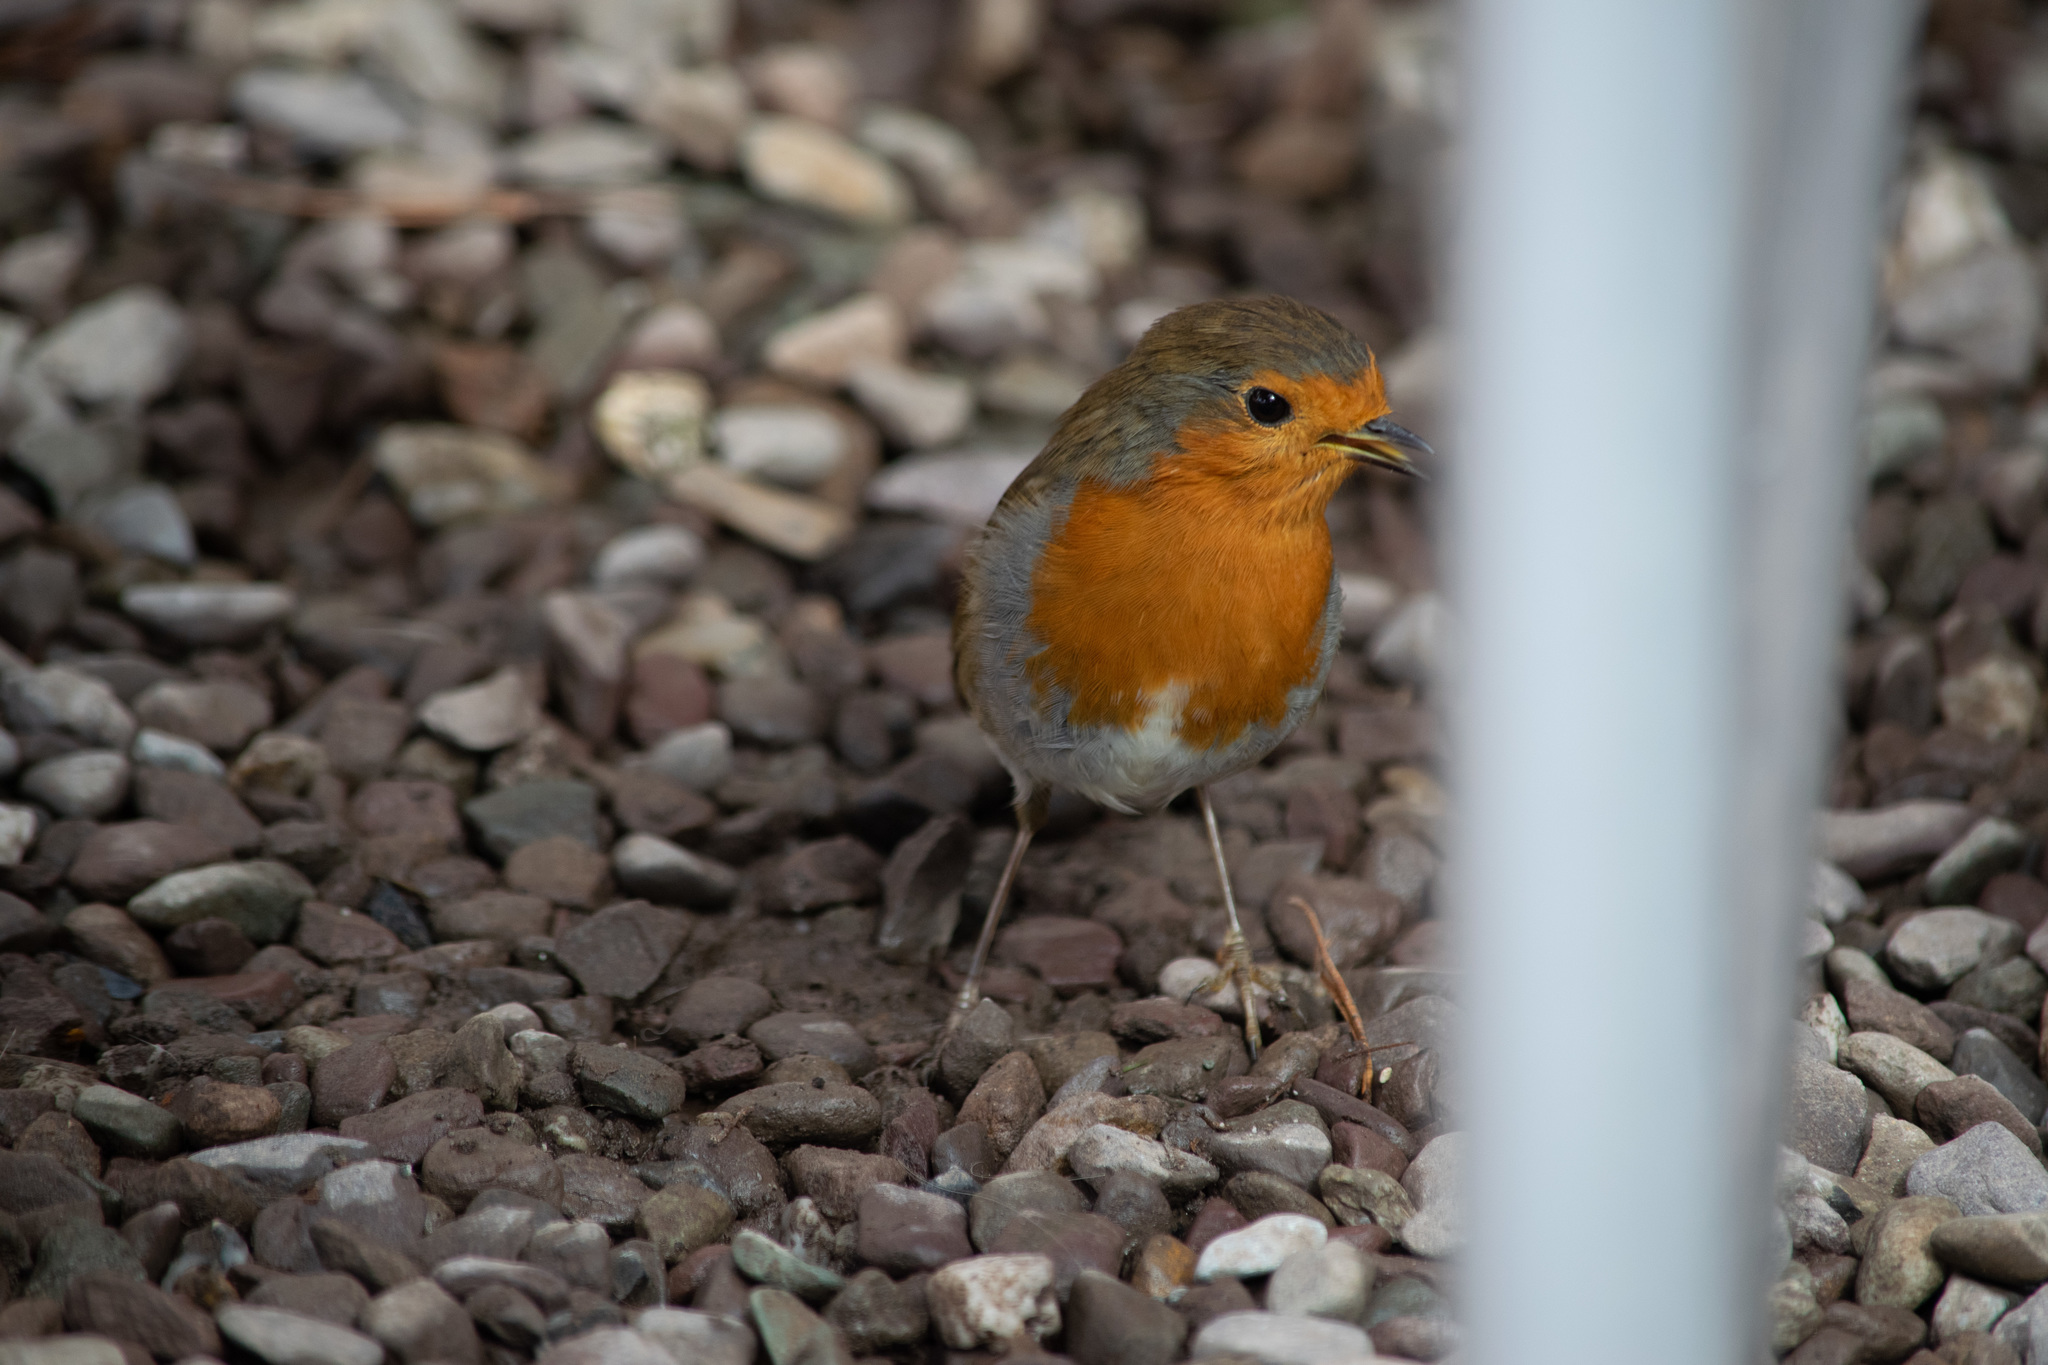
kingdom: Animalia
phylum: Chordata
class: Aves
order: Passeriformes
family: Muscicapidae
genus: Erithacus
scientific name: Erithacus rubecula
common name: European robin
